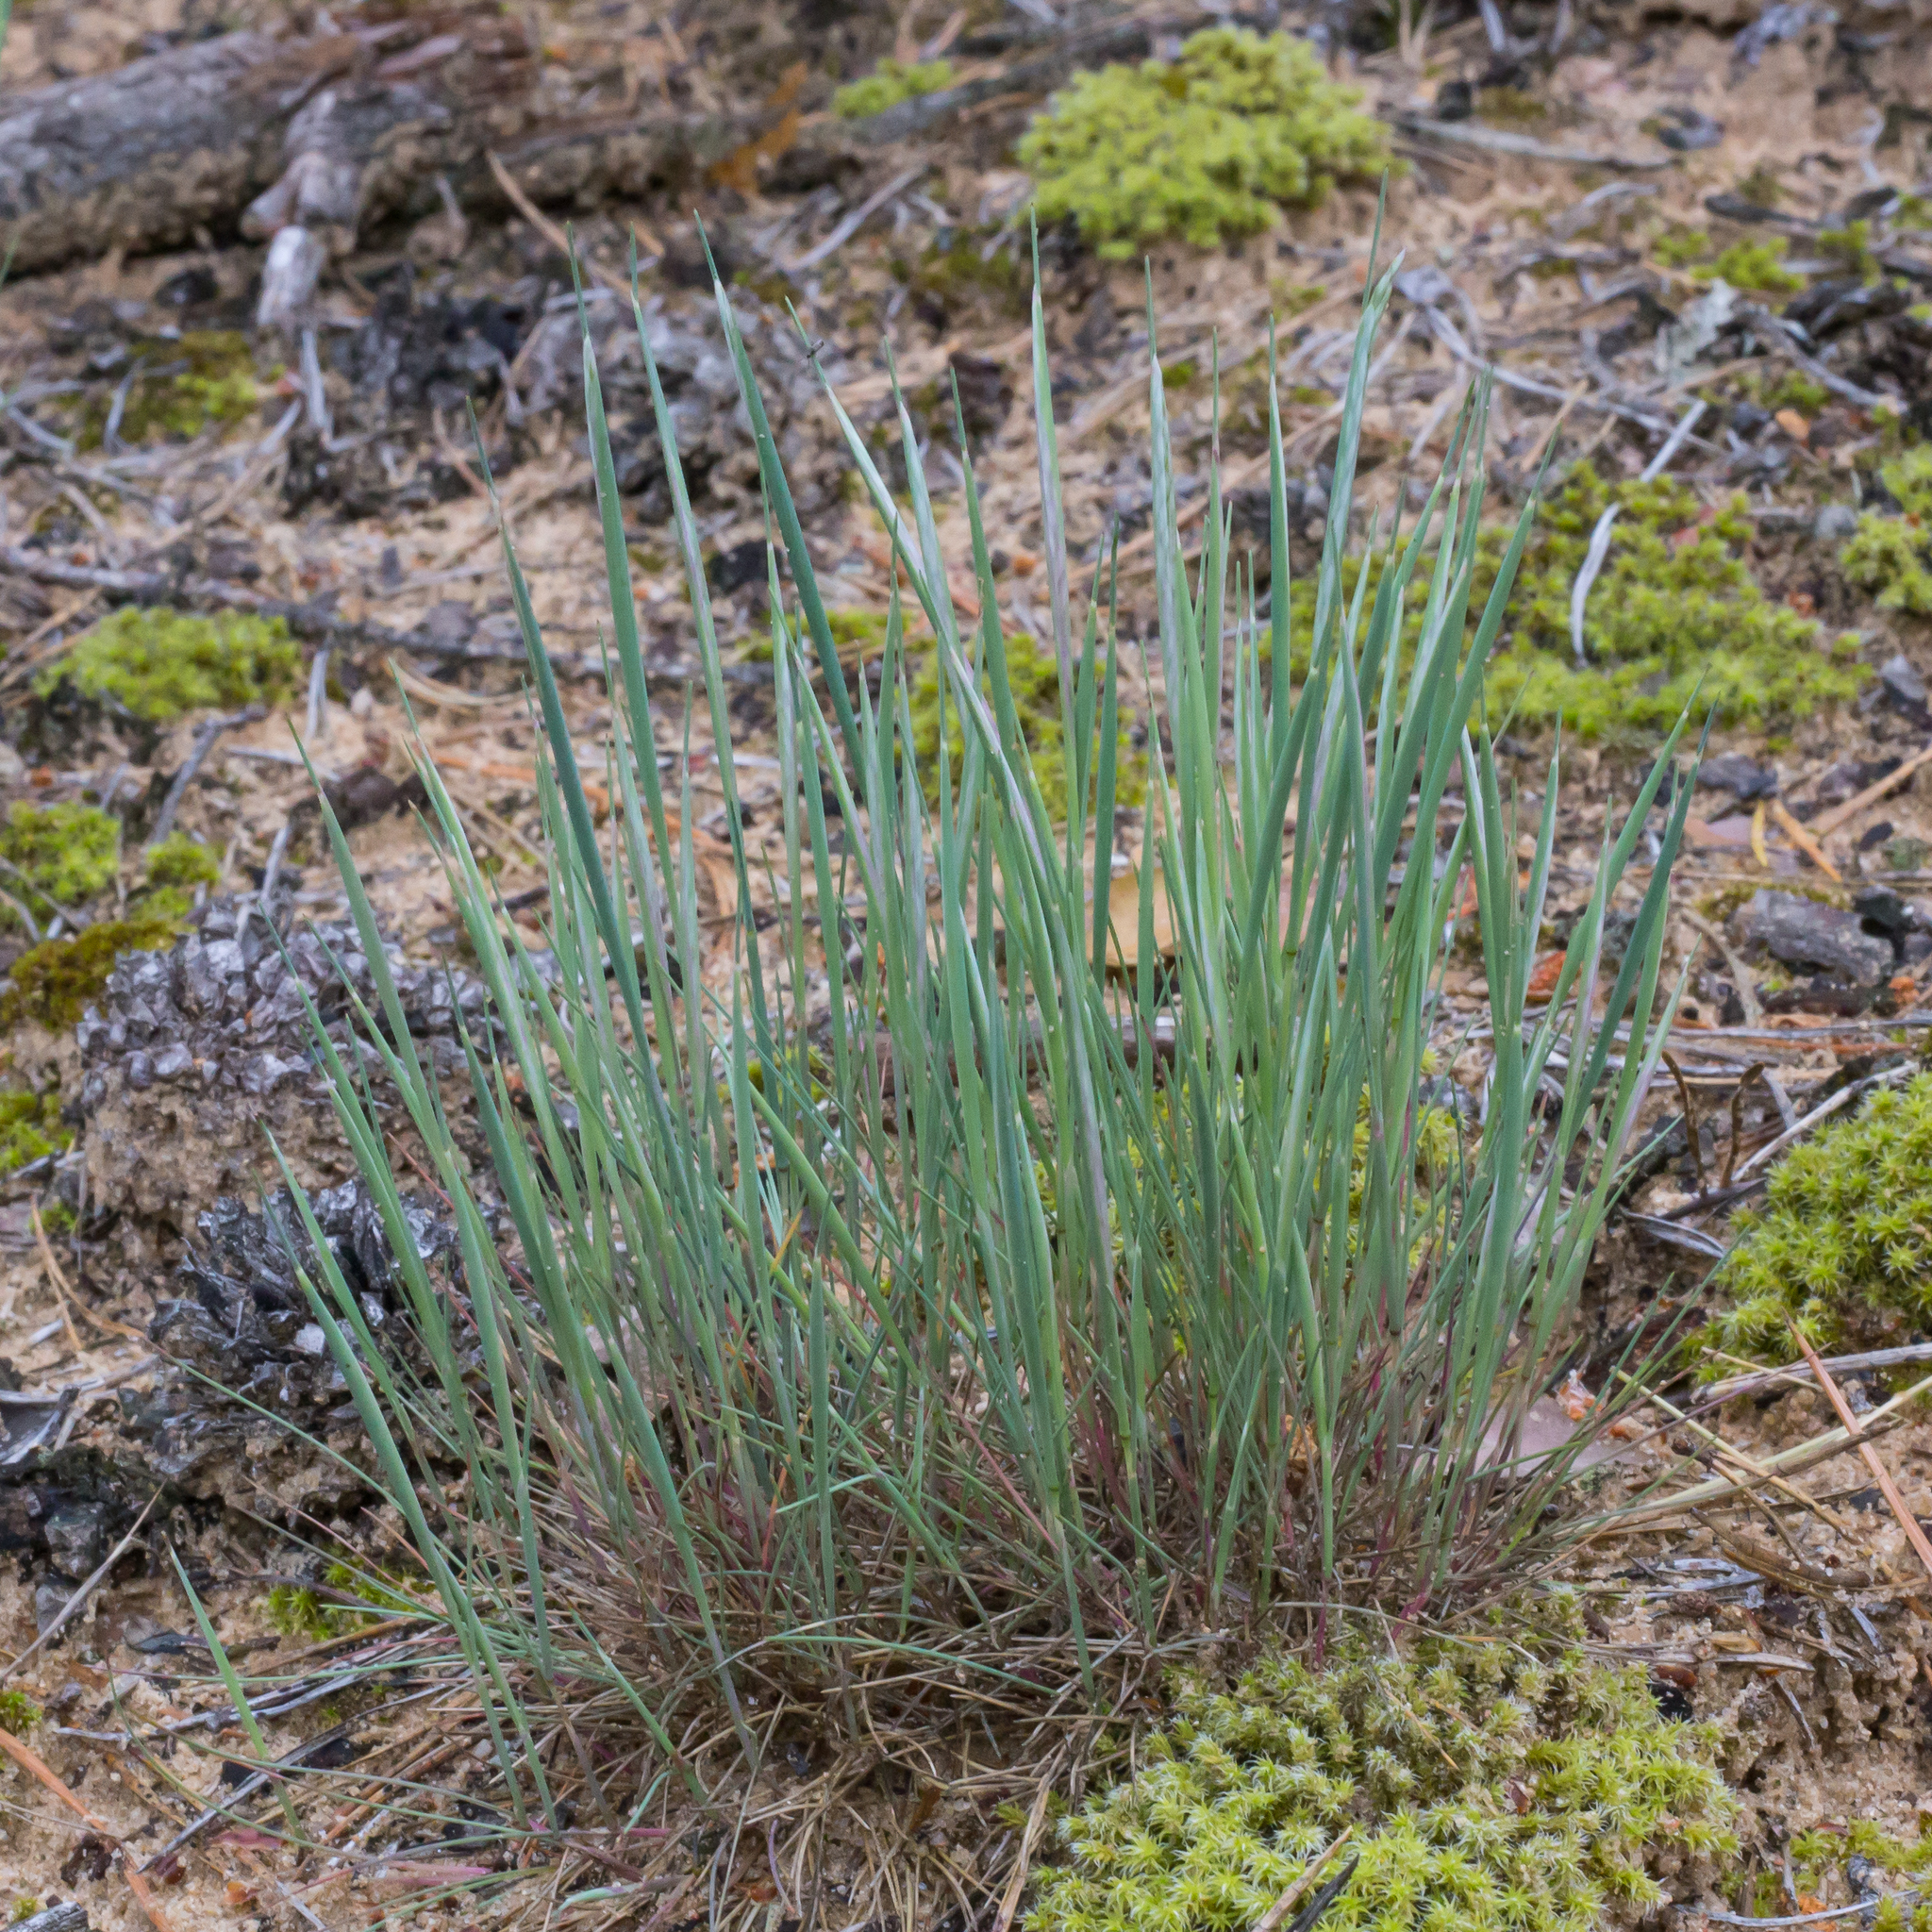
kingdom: Plantae
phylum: Tracheophyta
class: Liliopsida
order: Poales
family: Poaceae
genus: Corynephorus
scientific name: Corynephorus canescens
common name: Grey hair-grass
